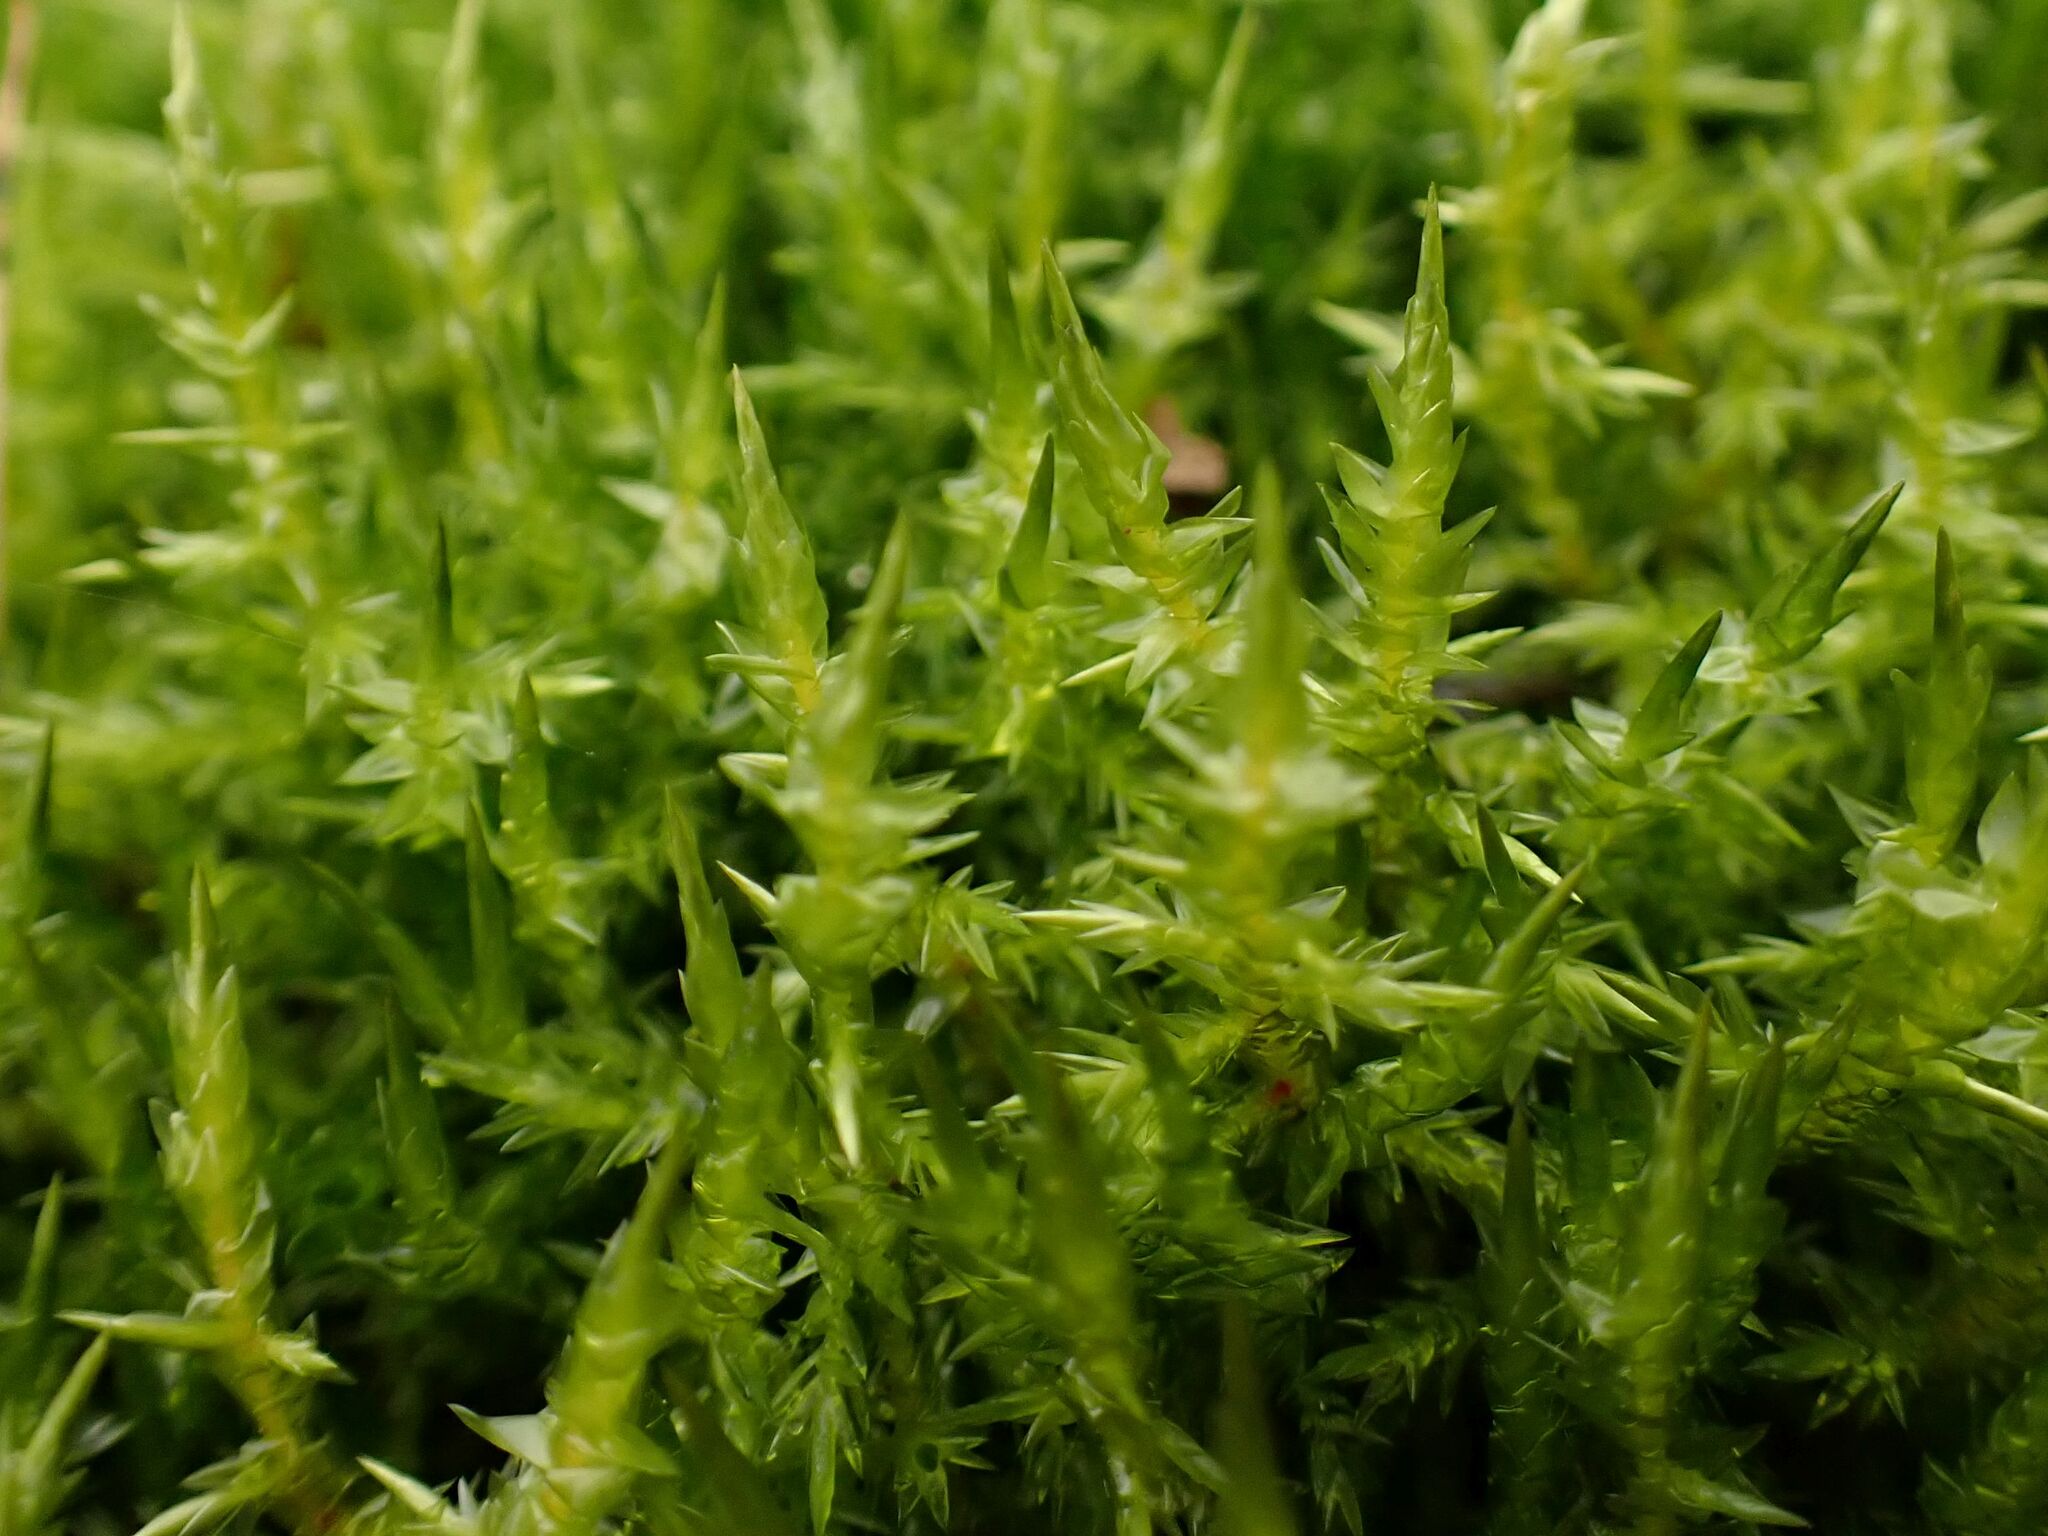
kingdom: Plantae
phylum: Bryophyta
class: Bryopsida
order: Hypnales
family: Pylaisiaceae
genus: Calliergonella
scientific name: Calliergonella cuspidata
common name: Common large wetland moss
